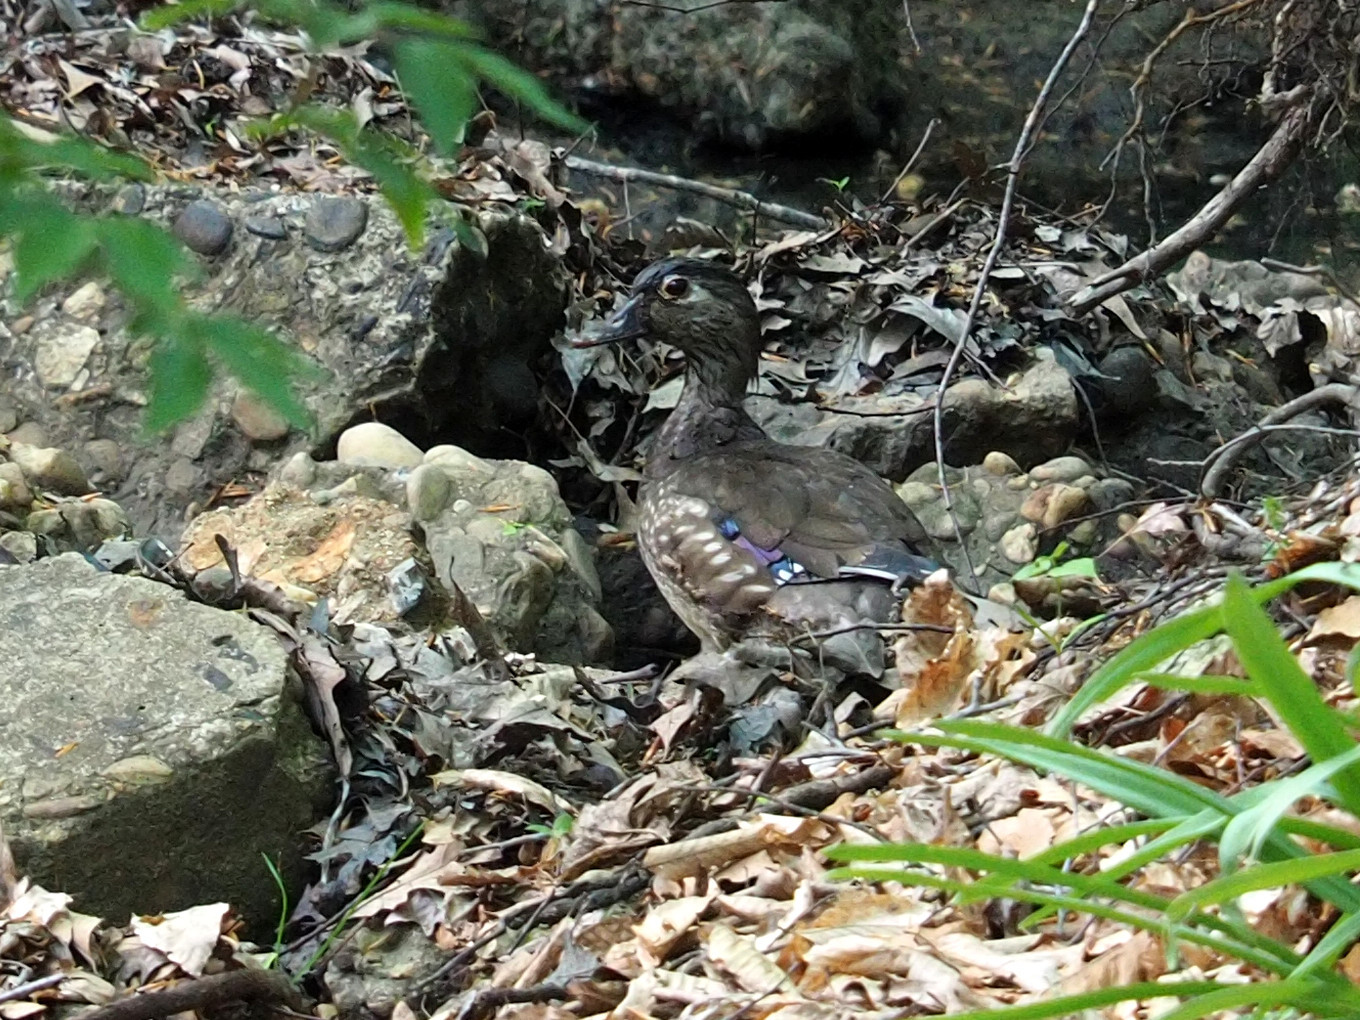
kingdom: Animalia
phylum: Chordata
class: Aves
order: Anseriformes
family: Anatidae
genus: Aix
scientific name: Aix sponsa
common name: Wood duck
